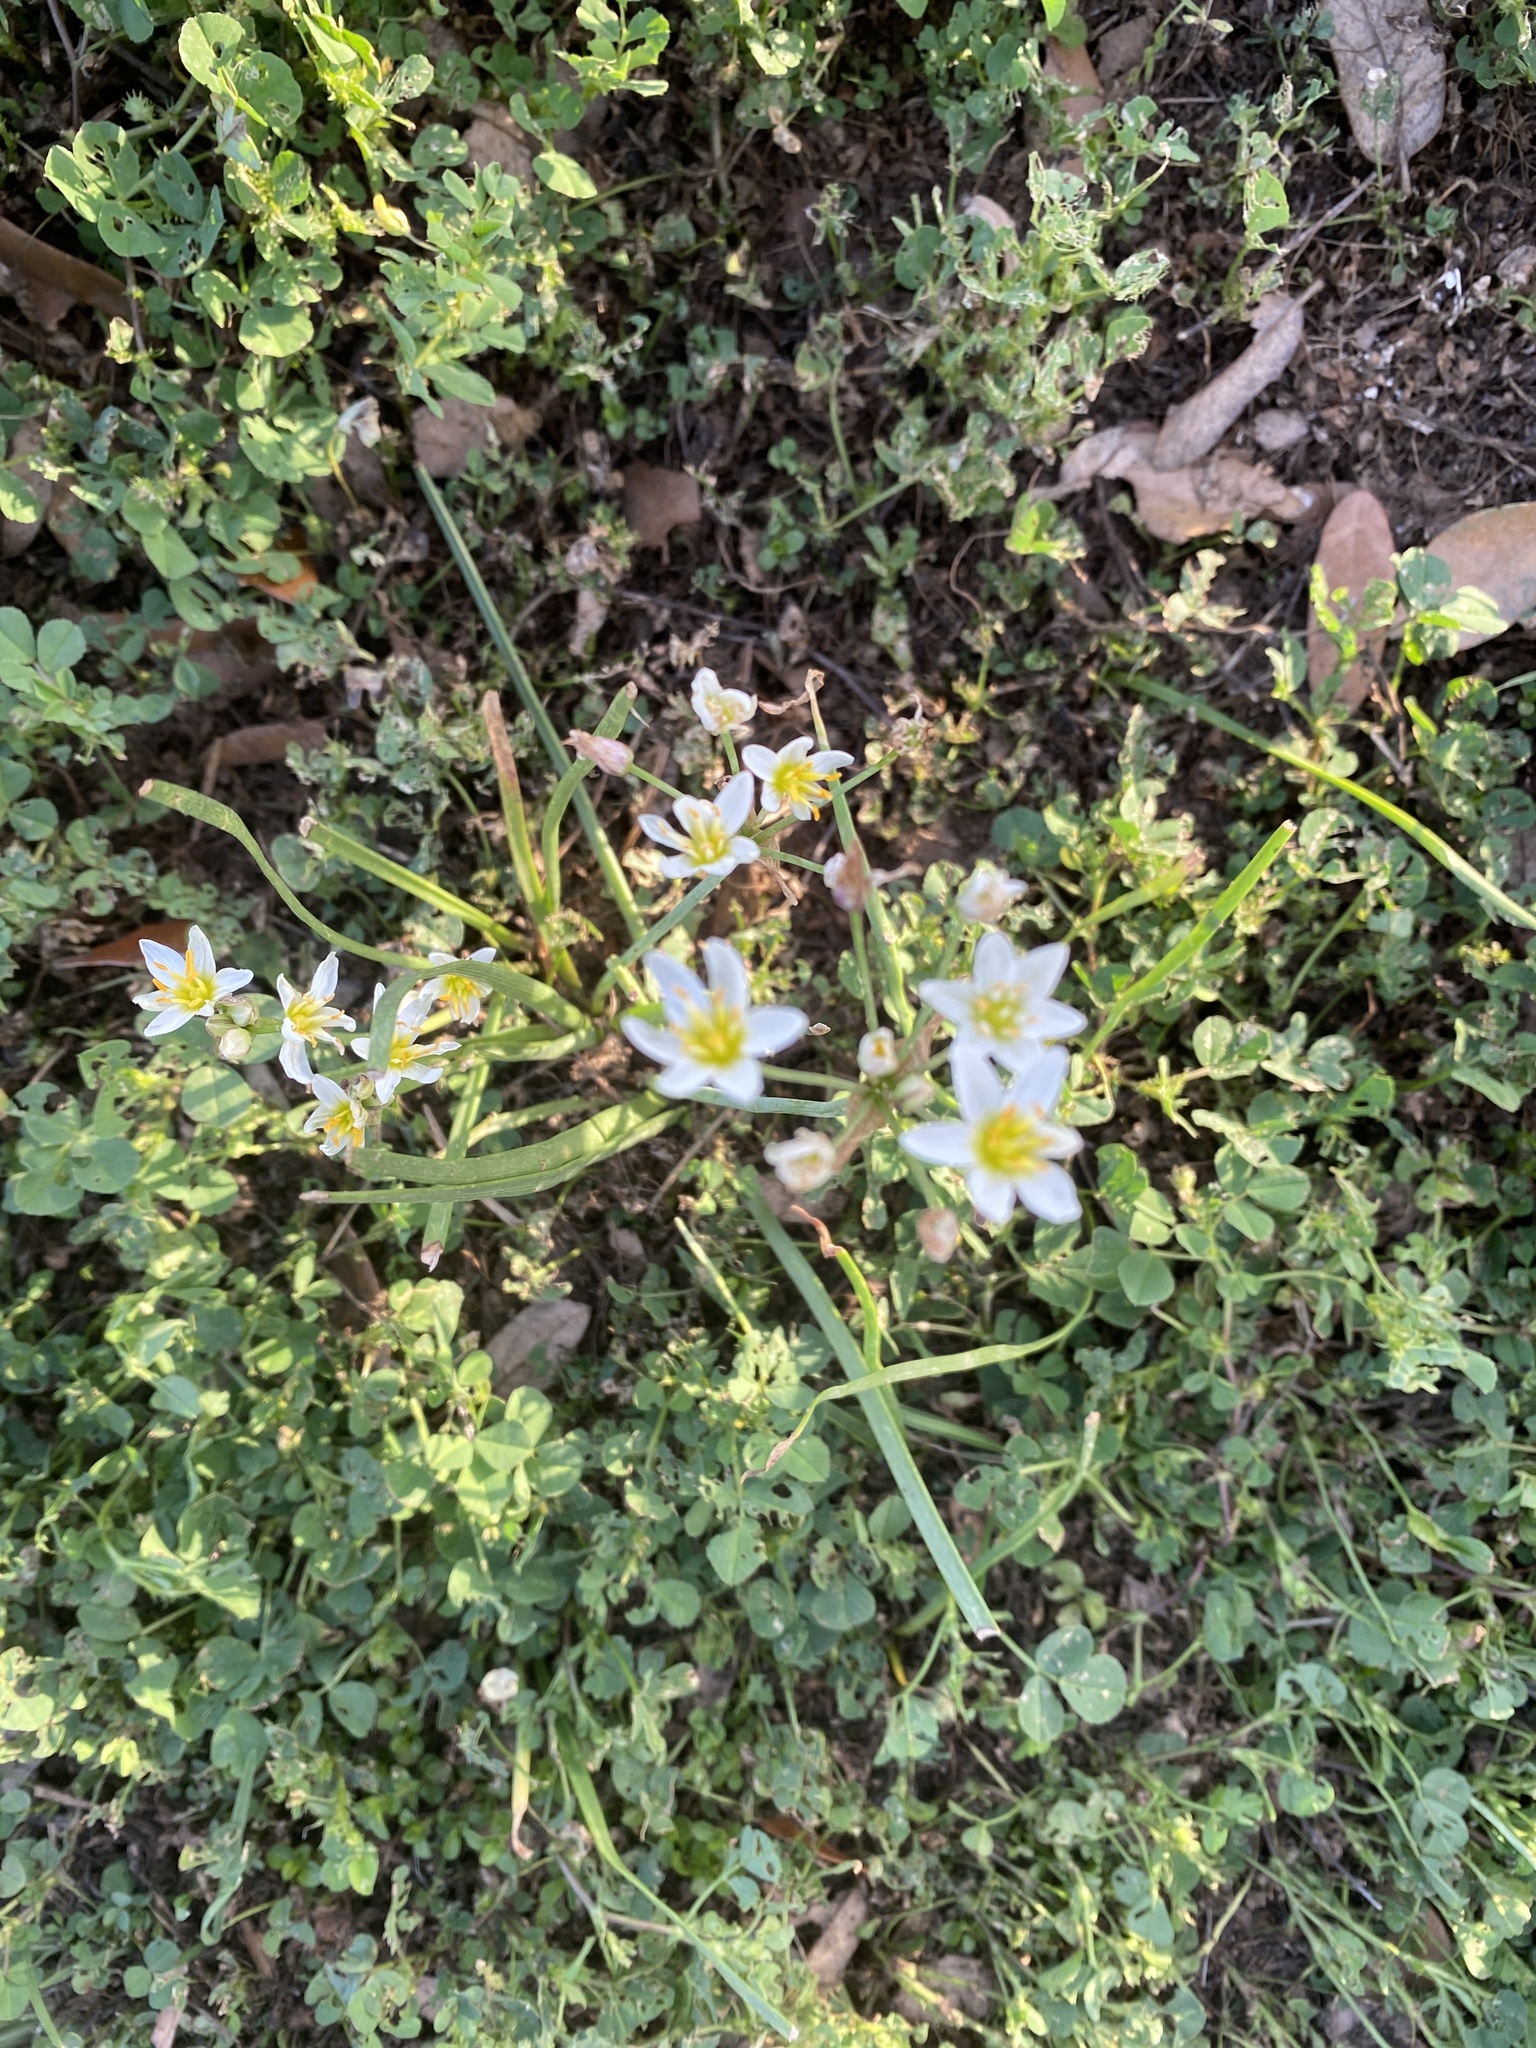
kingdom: Plantae
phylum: Tracheophyta
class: Liliopsida
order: Asparagales
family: Amaryllidaceae
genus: Nothoscordum
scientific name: Nothoscordum bivalve
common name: Crow-poison
